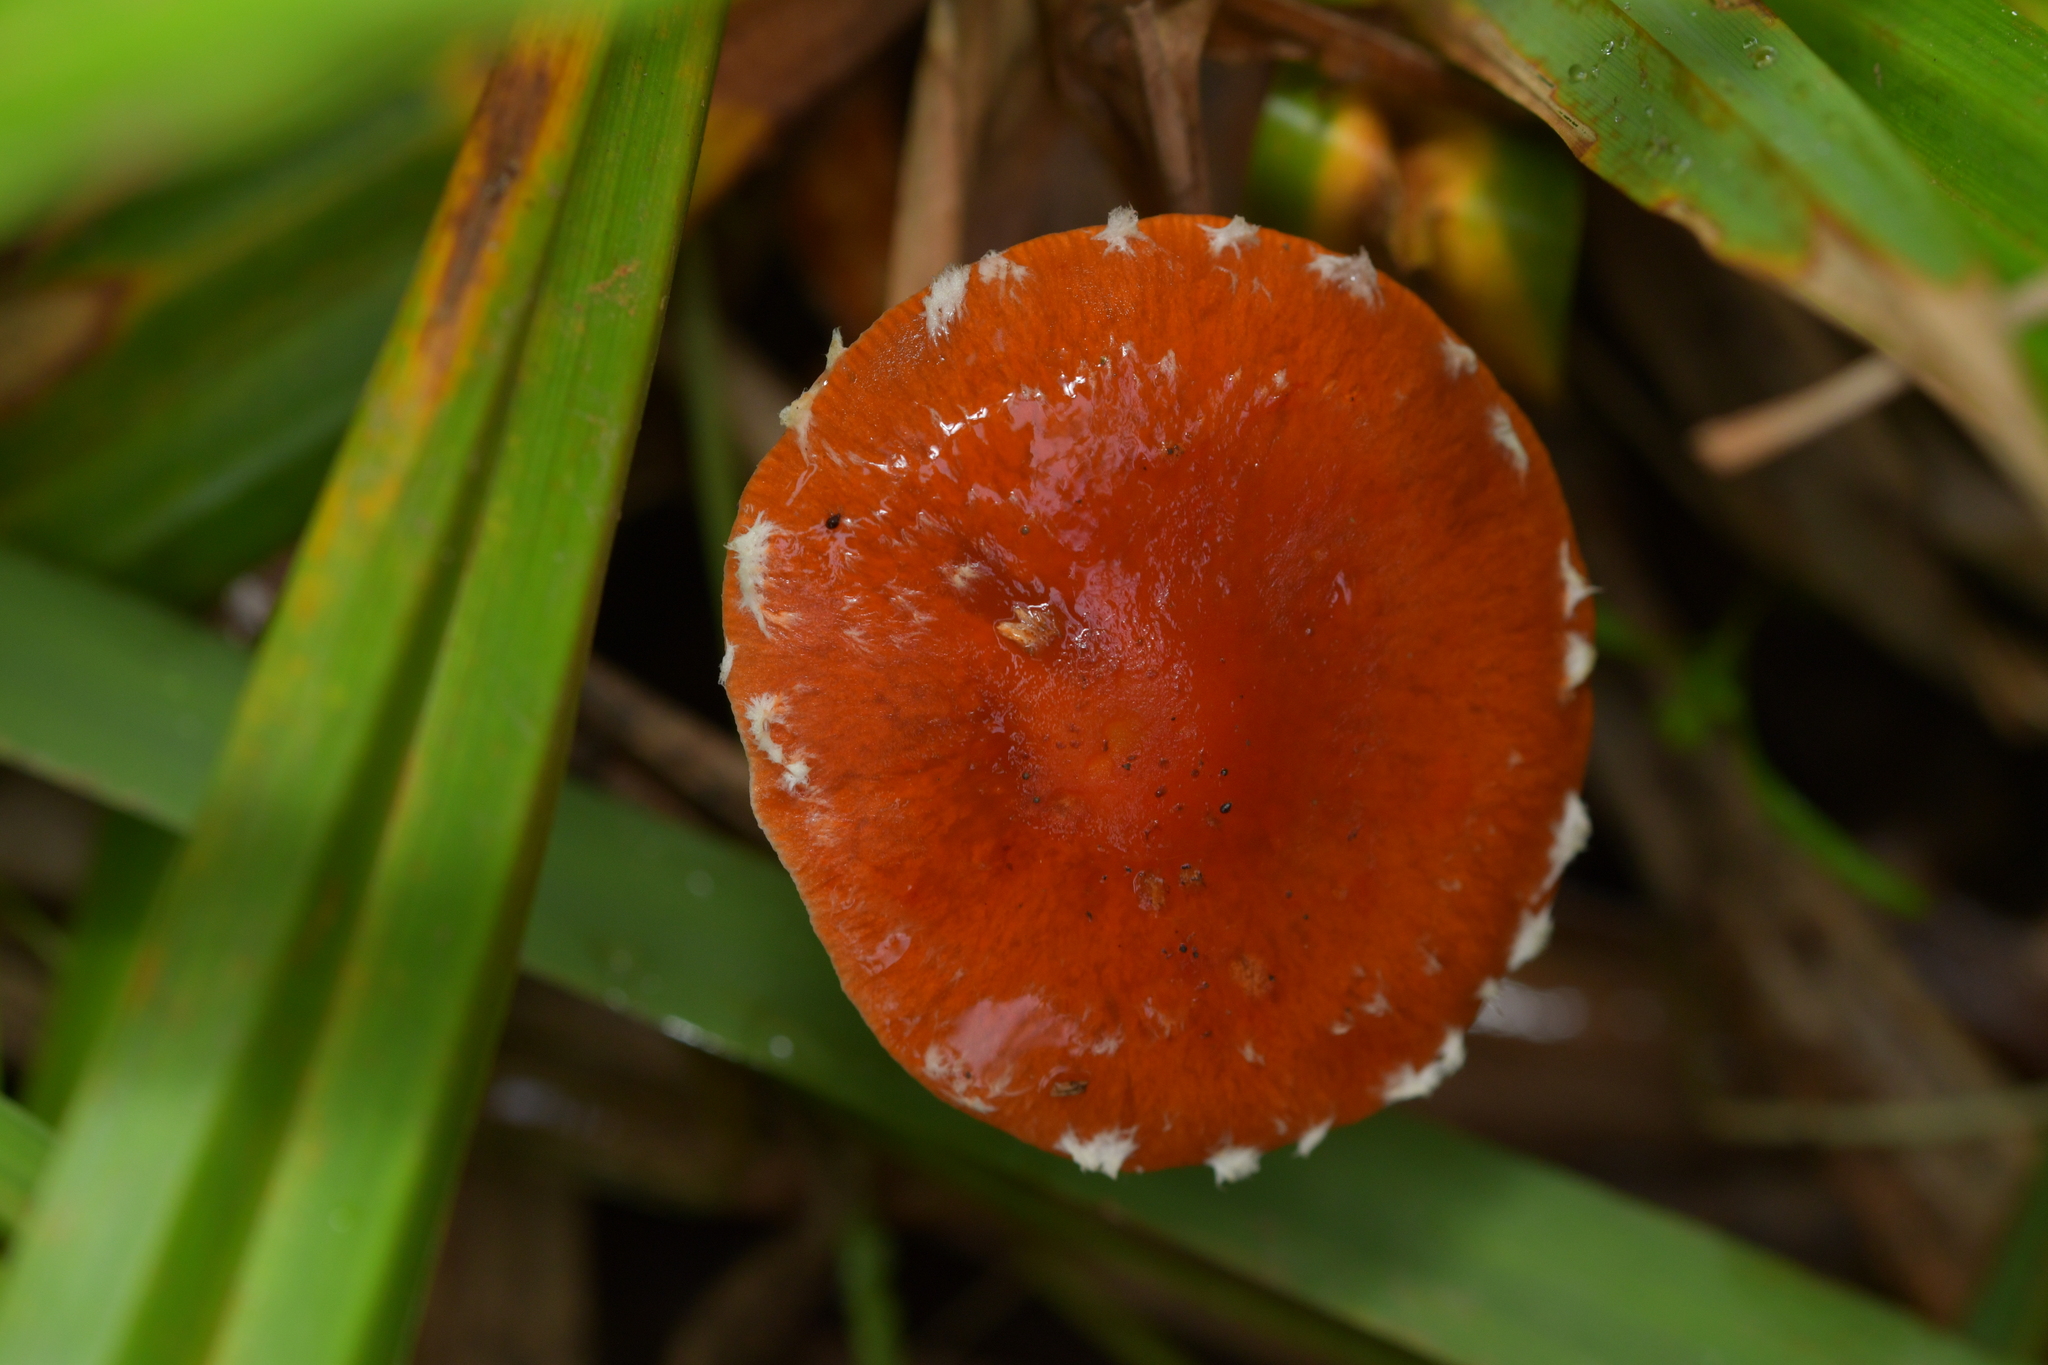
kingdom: Fungi
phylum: Basidiomycota
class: Agaricomycetes
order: Agaricales
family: Strophariaceae
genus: Leratiomyces
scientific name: Leratiomyces ceres
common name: Redlead roundhead
